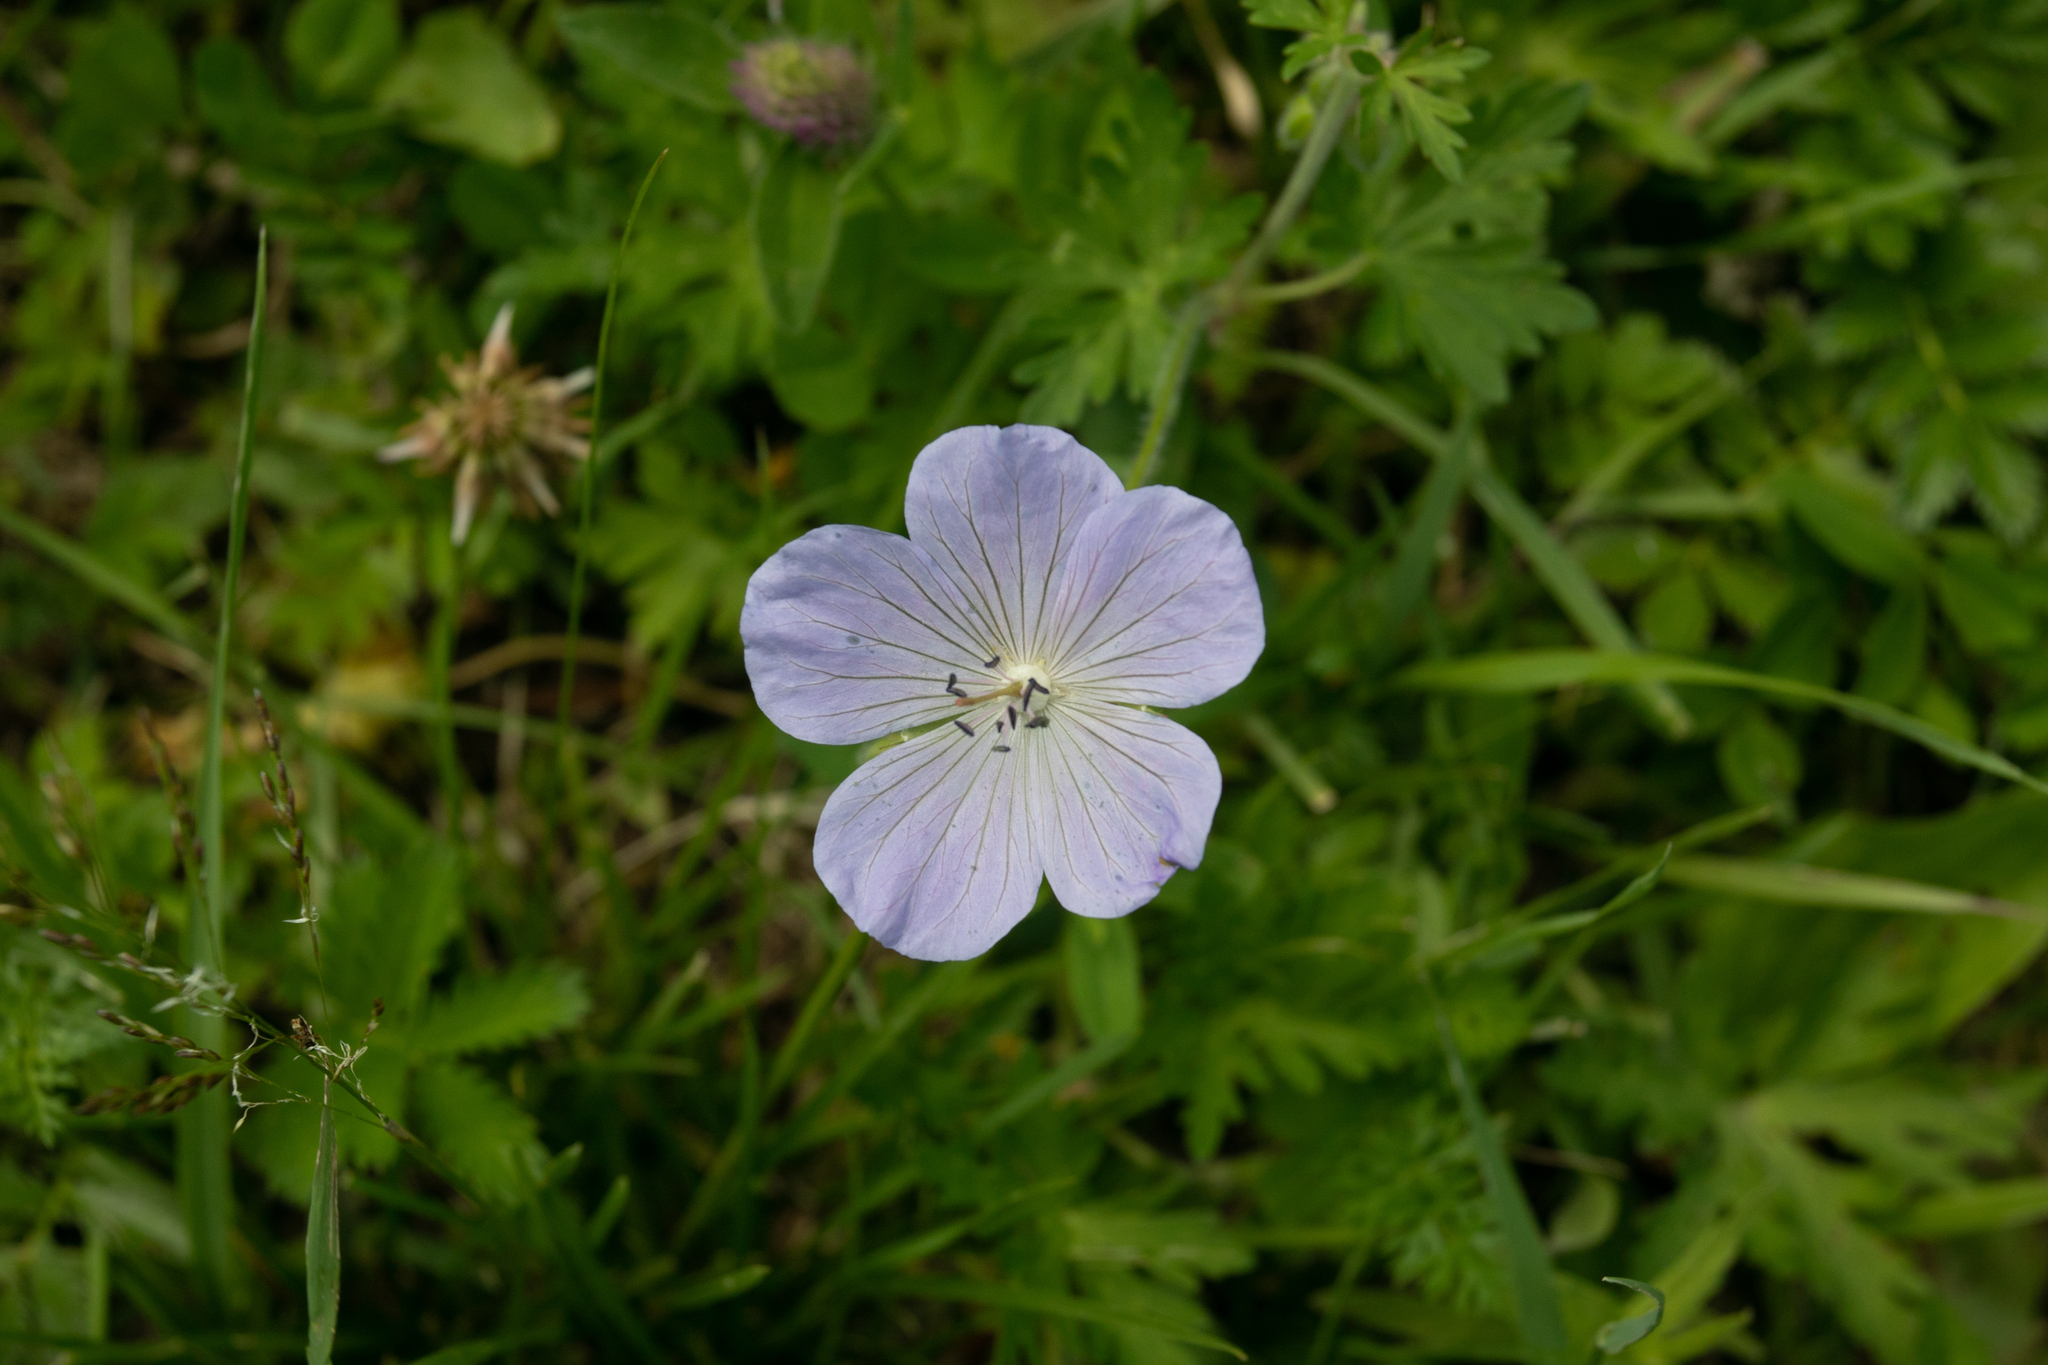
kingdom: Plantae
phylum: Tracheophyta
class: Magnoliopsida
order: Geraniales
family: Geraniaceae
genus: Geranium
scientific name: Geranium pratense
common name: Meadow crane's-bill
